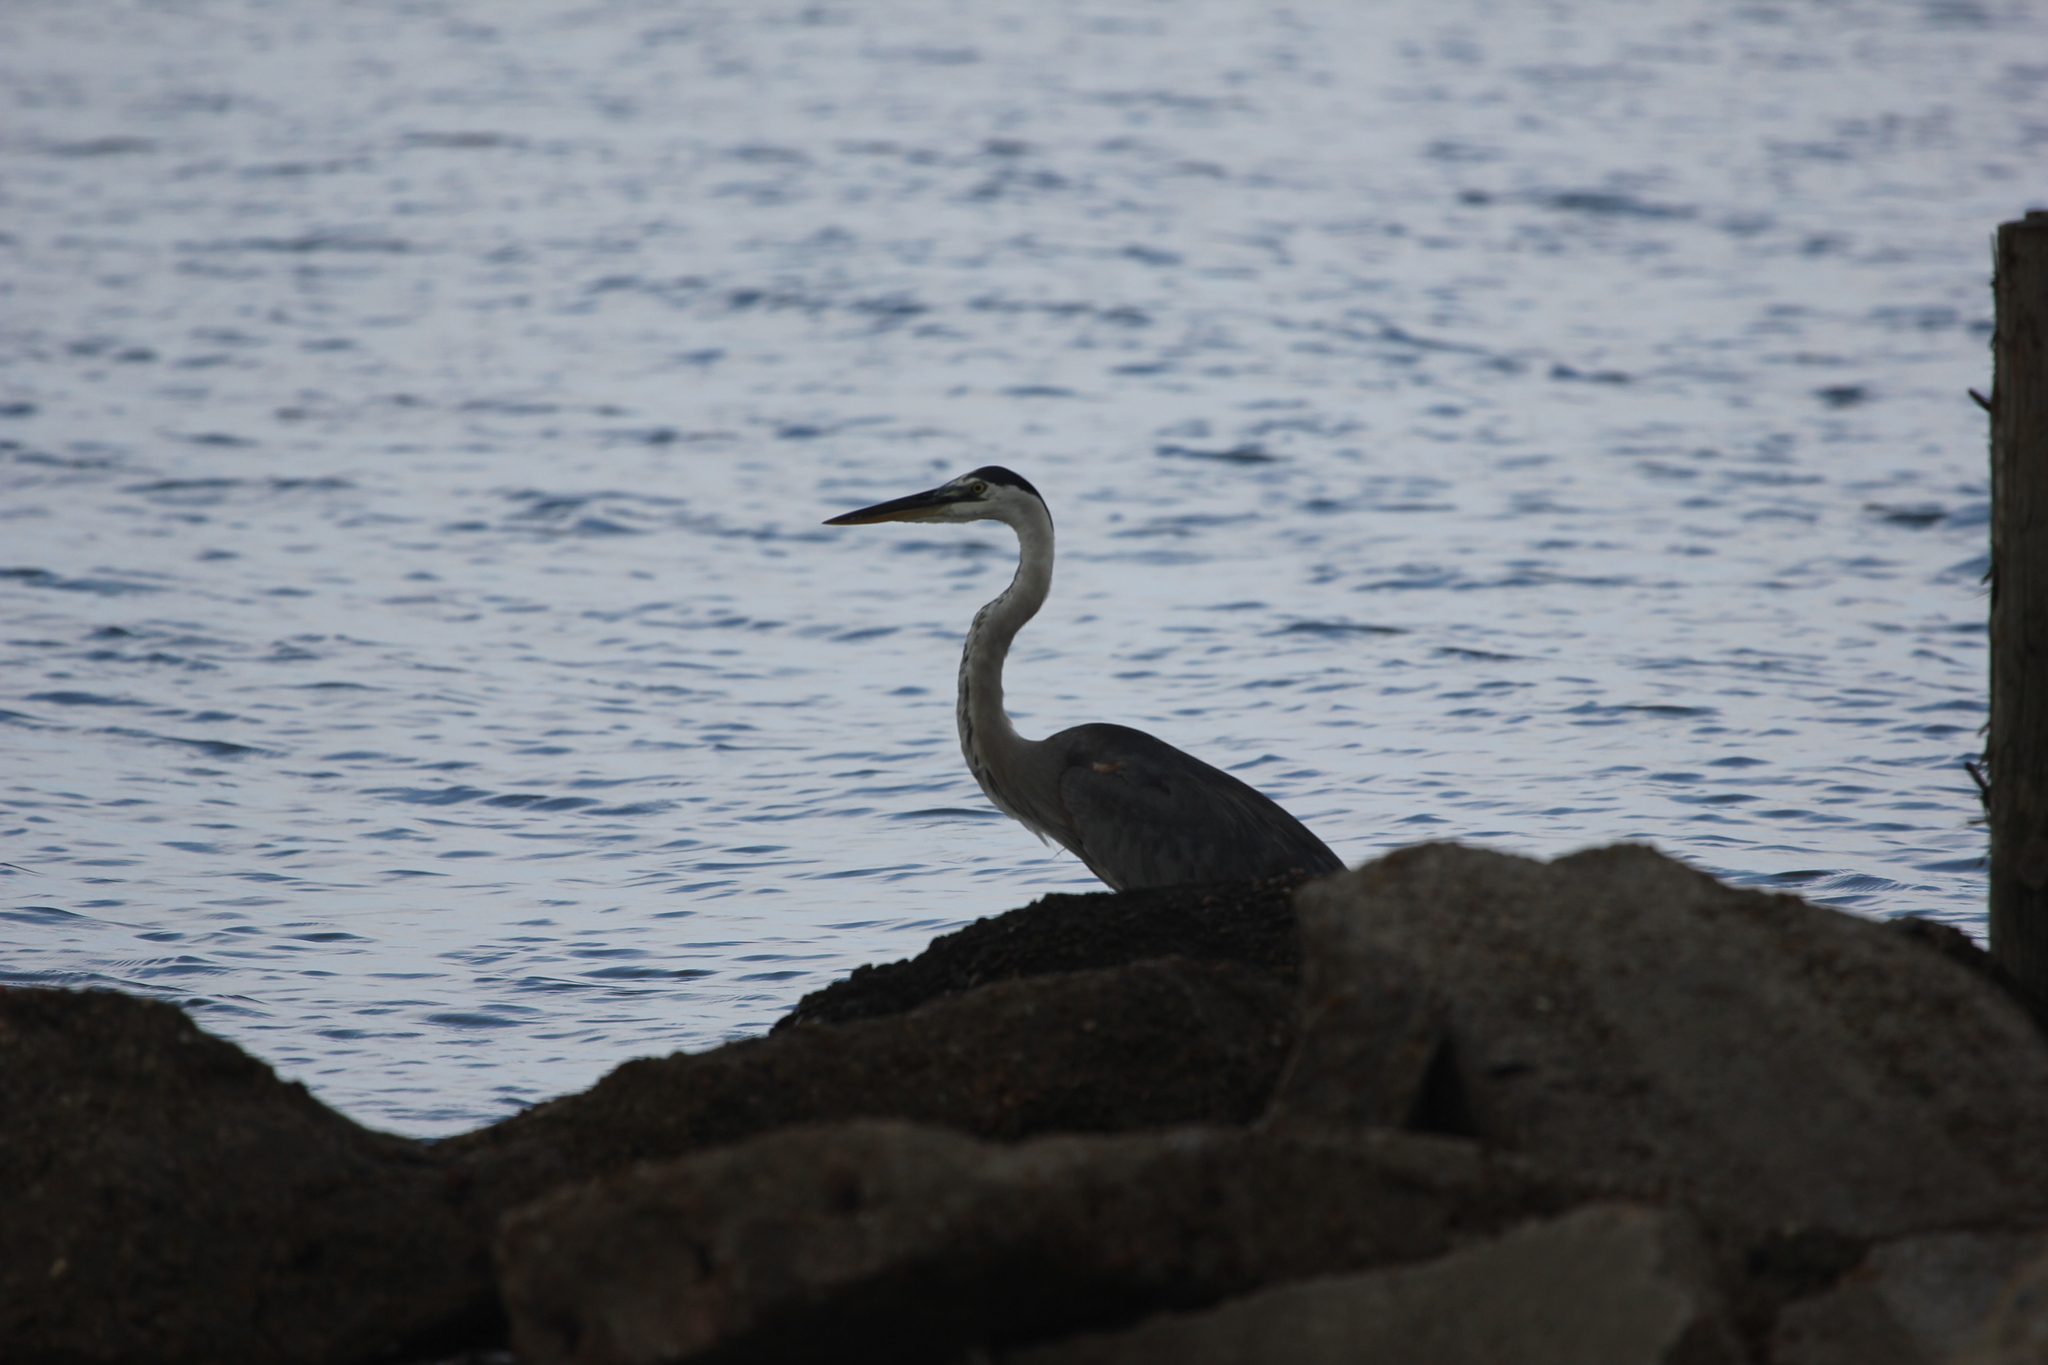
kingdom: Animalia
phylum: Chordata
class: Aves
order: Pelecaniformes
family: Ardeidae
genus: Ardea
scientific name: Ardea herodias
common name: Great blue heron
